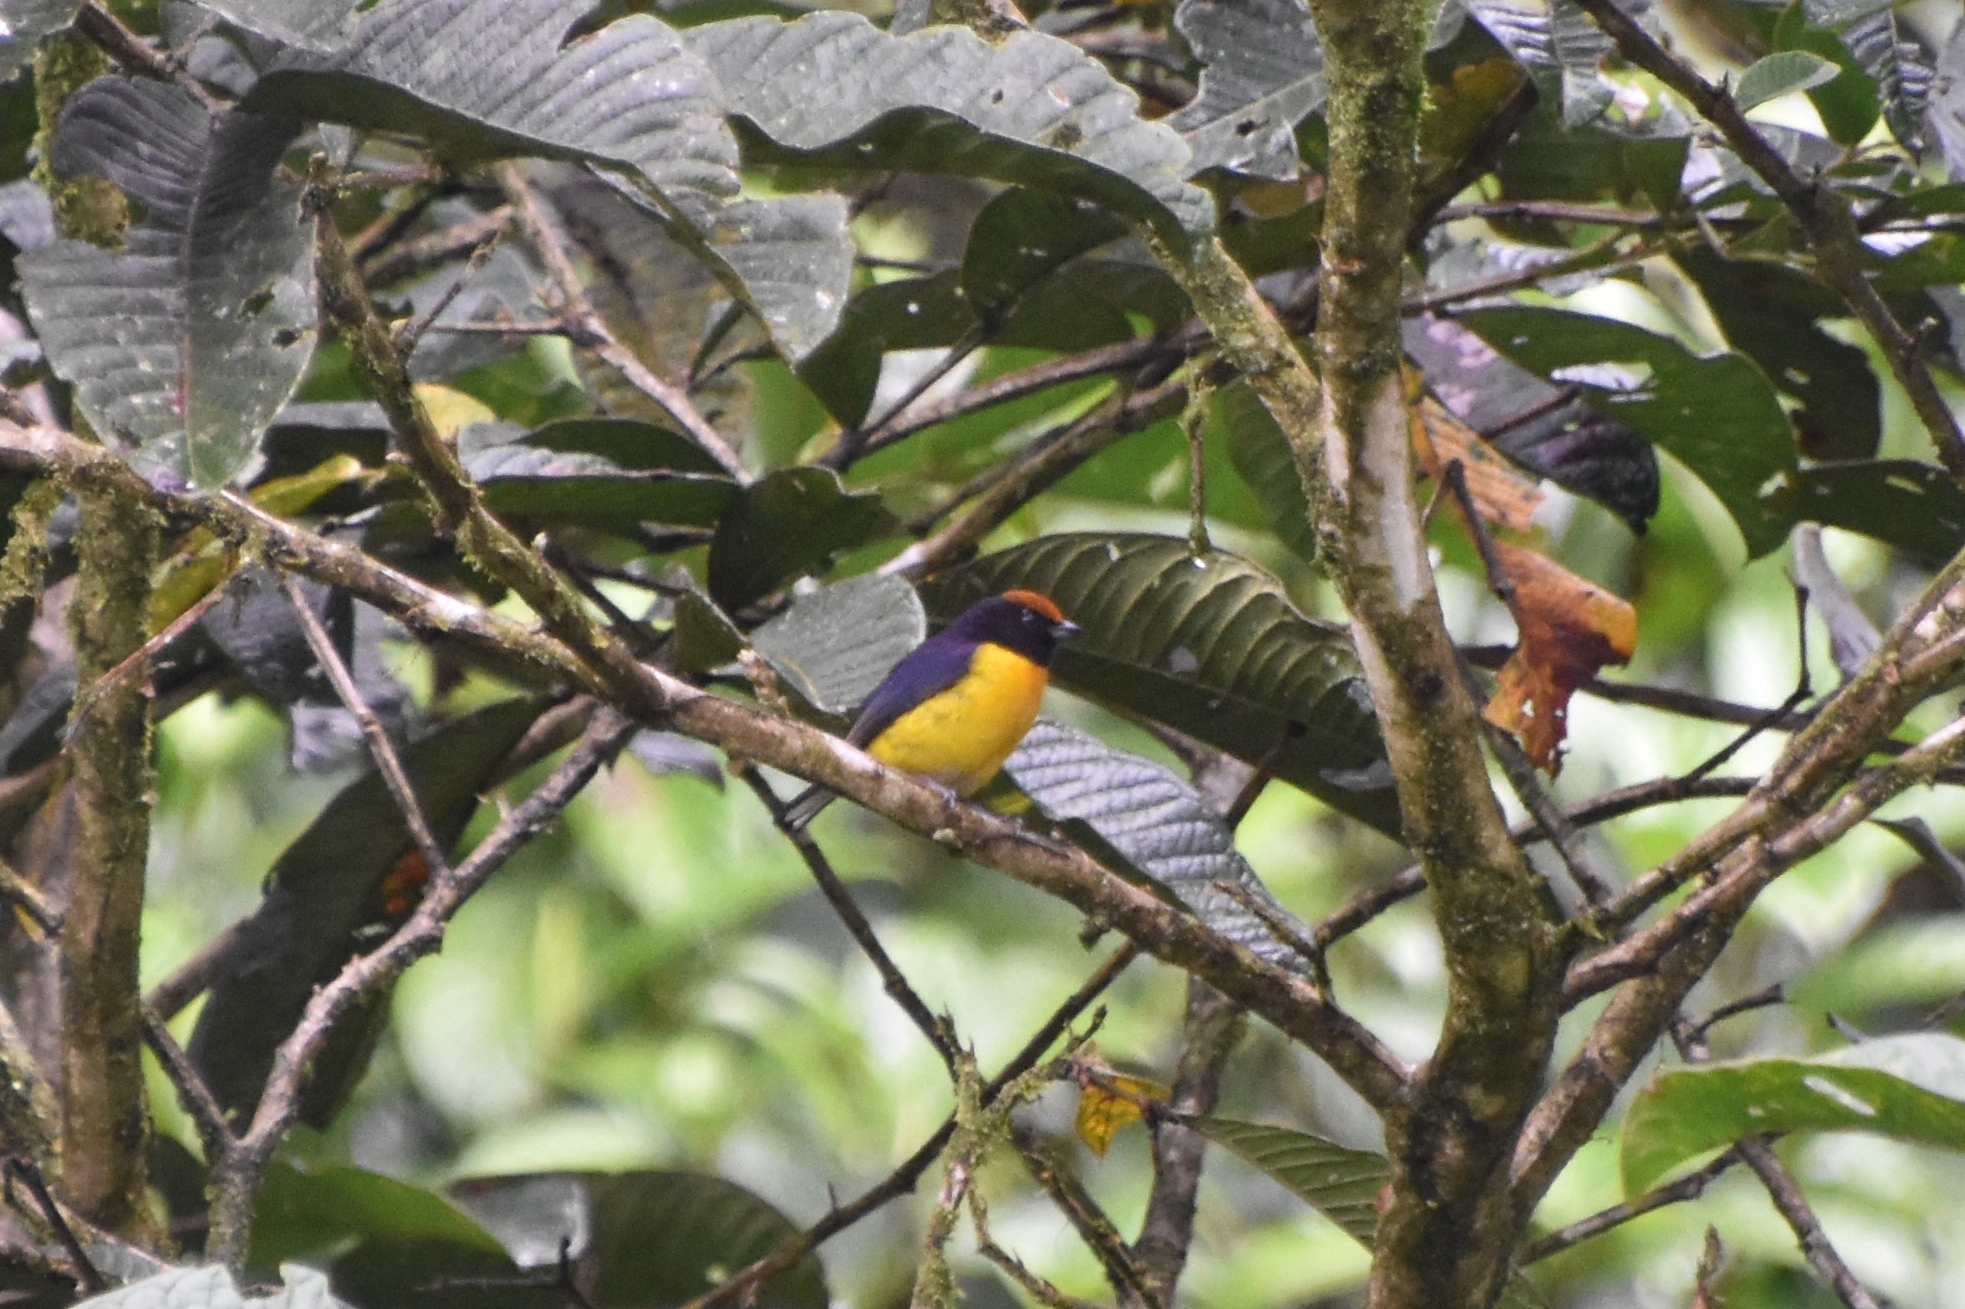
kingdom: Animalia
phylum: Chordata
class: Aves
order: Passeriformes
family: Fringillidae
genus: Euphonia
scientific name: Euphonia anneae
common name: Tawny-capped euphonia
